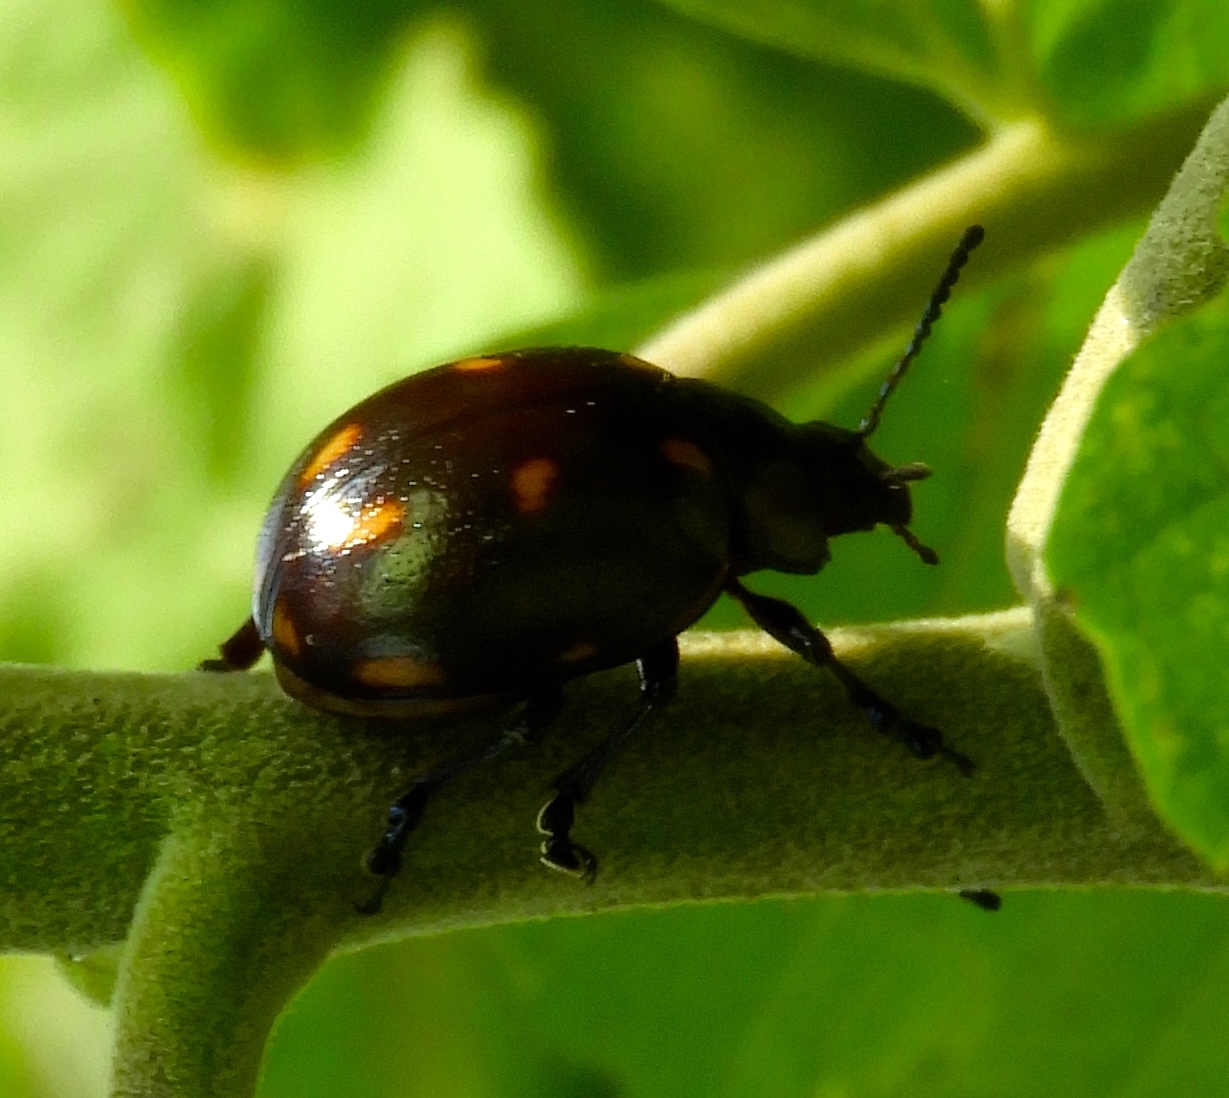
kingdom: Animalia
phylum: Arthropoda
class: Insecta
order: Coleoptera
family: Chrysomelidae
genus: Leptinotarsa
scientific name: Leptinotarsa behrensi
